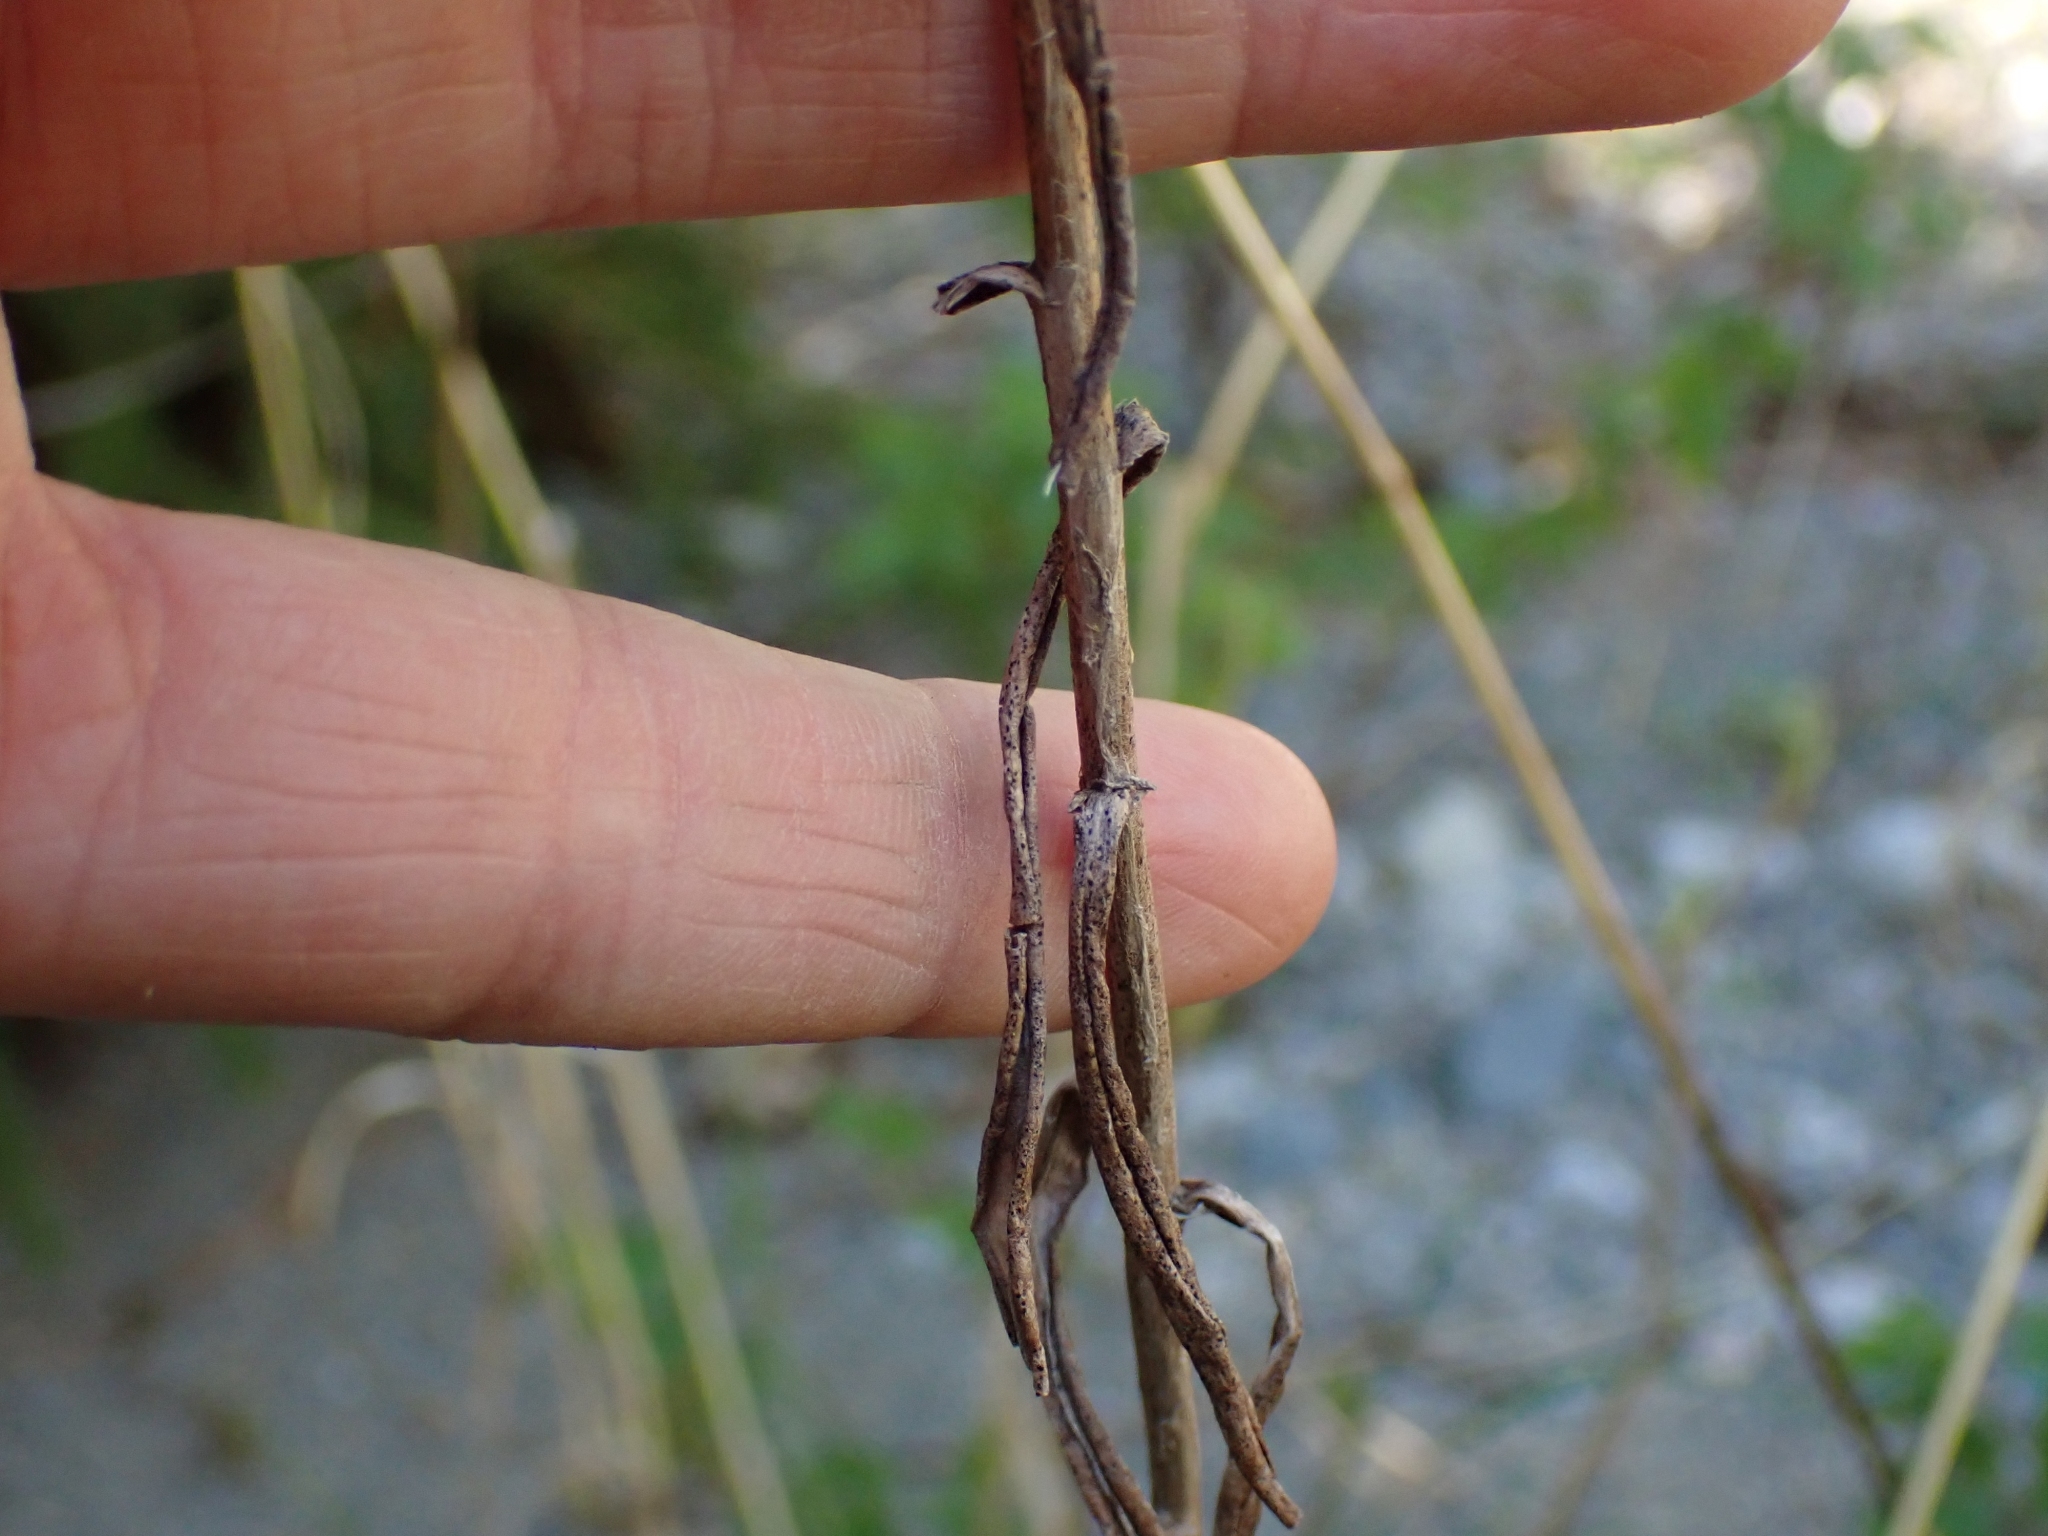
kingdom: Plantae
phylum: Tracheophyta
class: Magnoliopsida
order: Asterales
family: Asteraceae
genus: Anaphalis
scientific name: Anaphalis margaritacea
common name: Pearly everlasting
